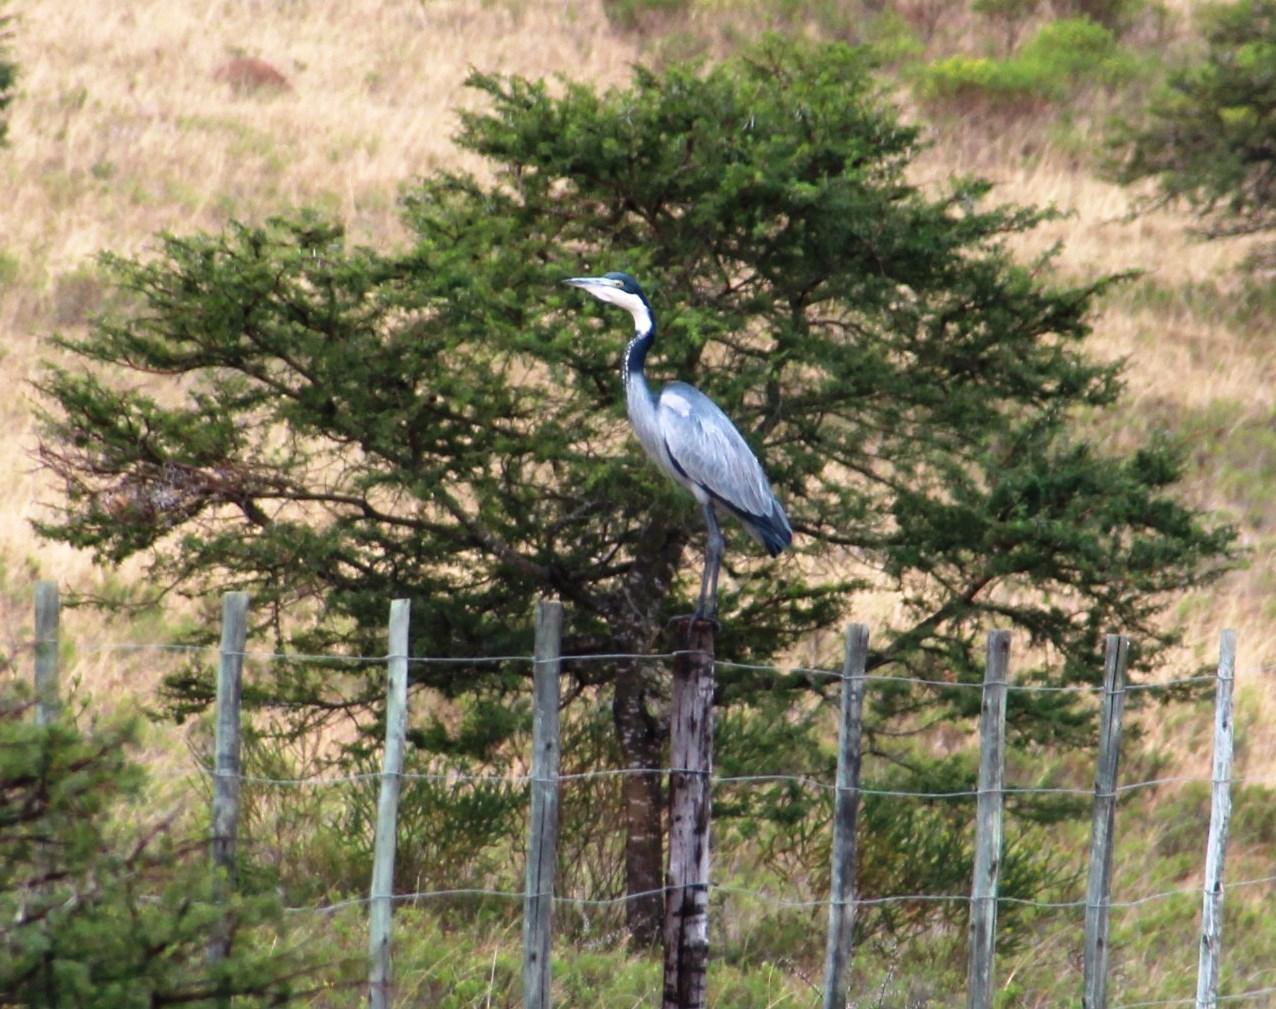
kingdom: Animalia
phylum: Chordata
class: Aves
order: Pelecaniformes
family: Ardeidae
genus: Ardea
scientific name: Ardea melanocephala
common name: Black-headed heron
